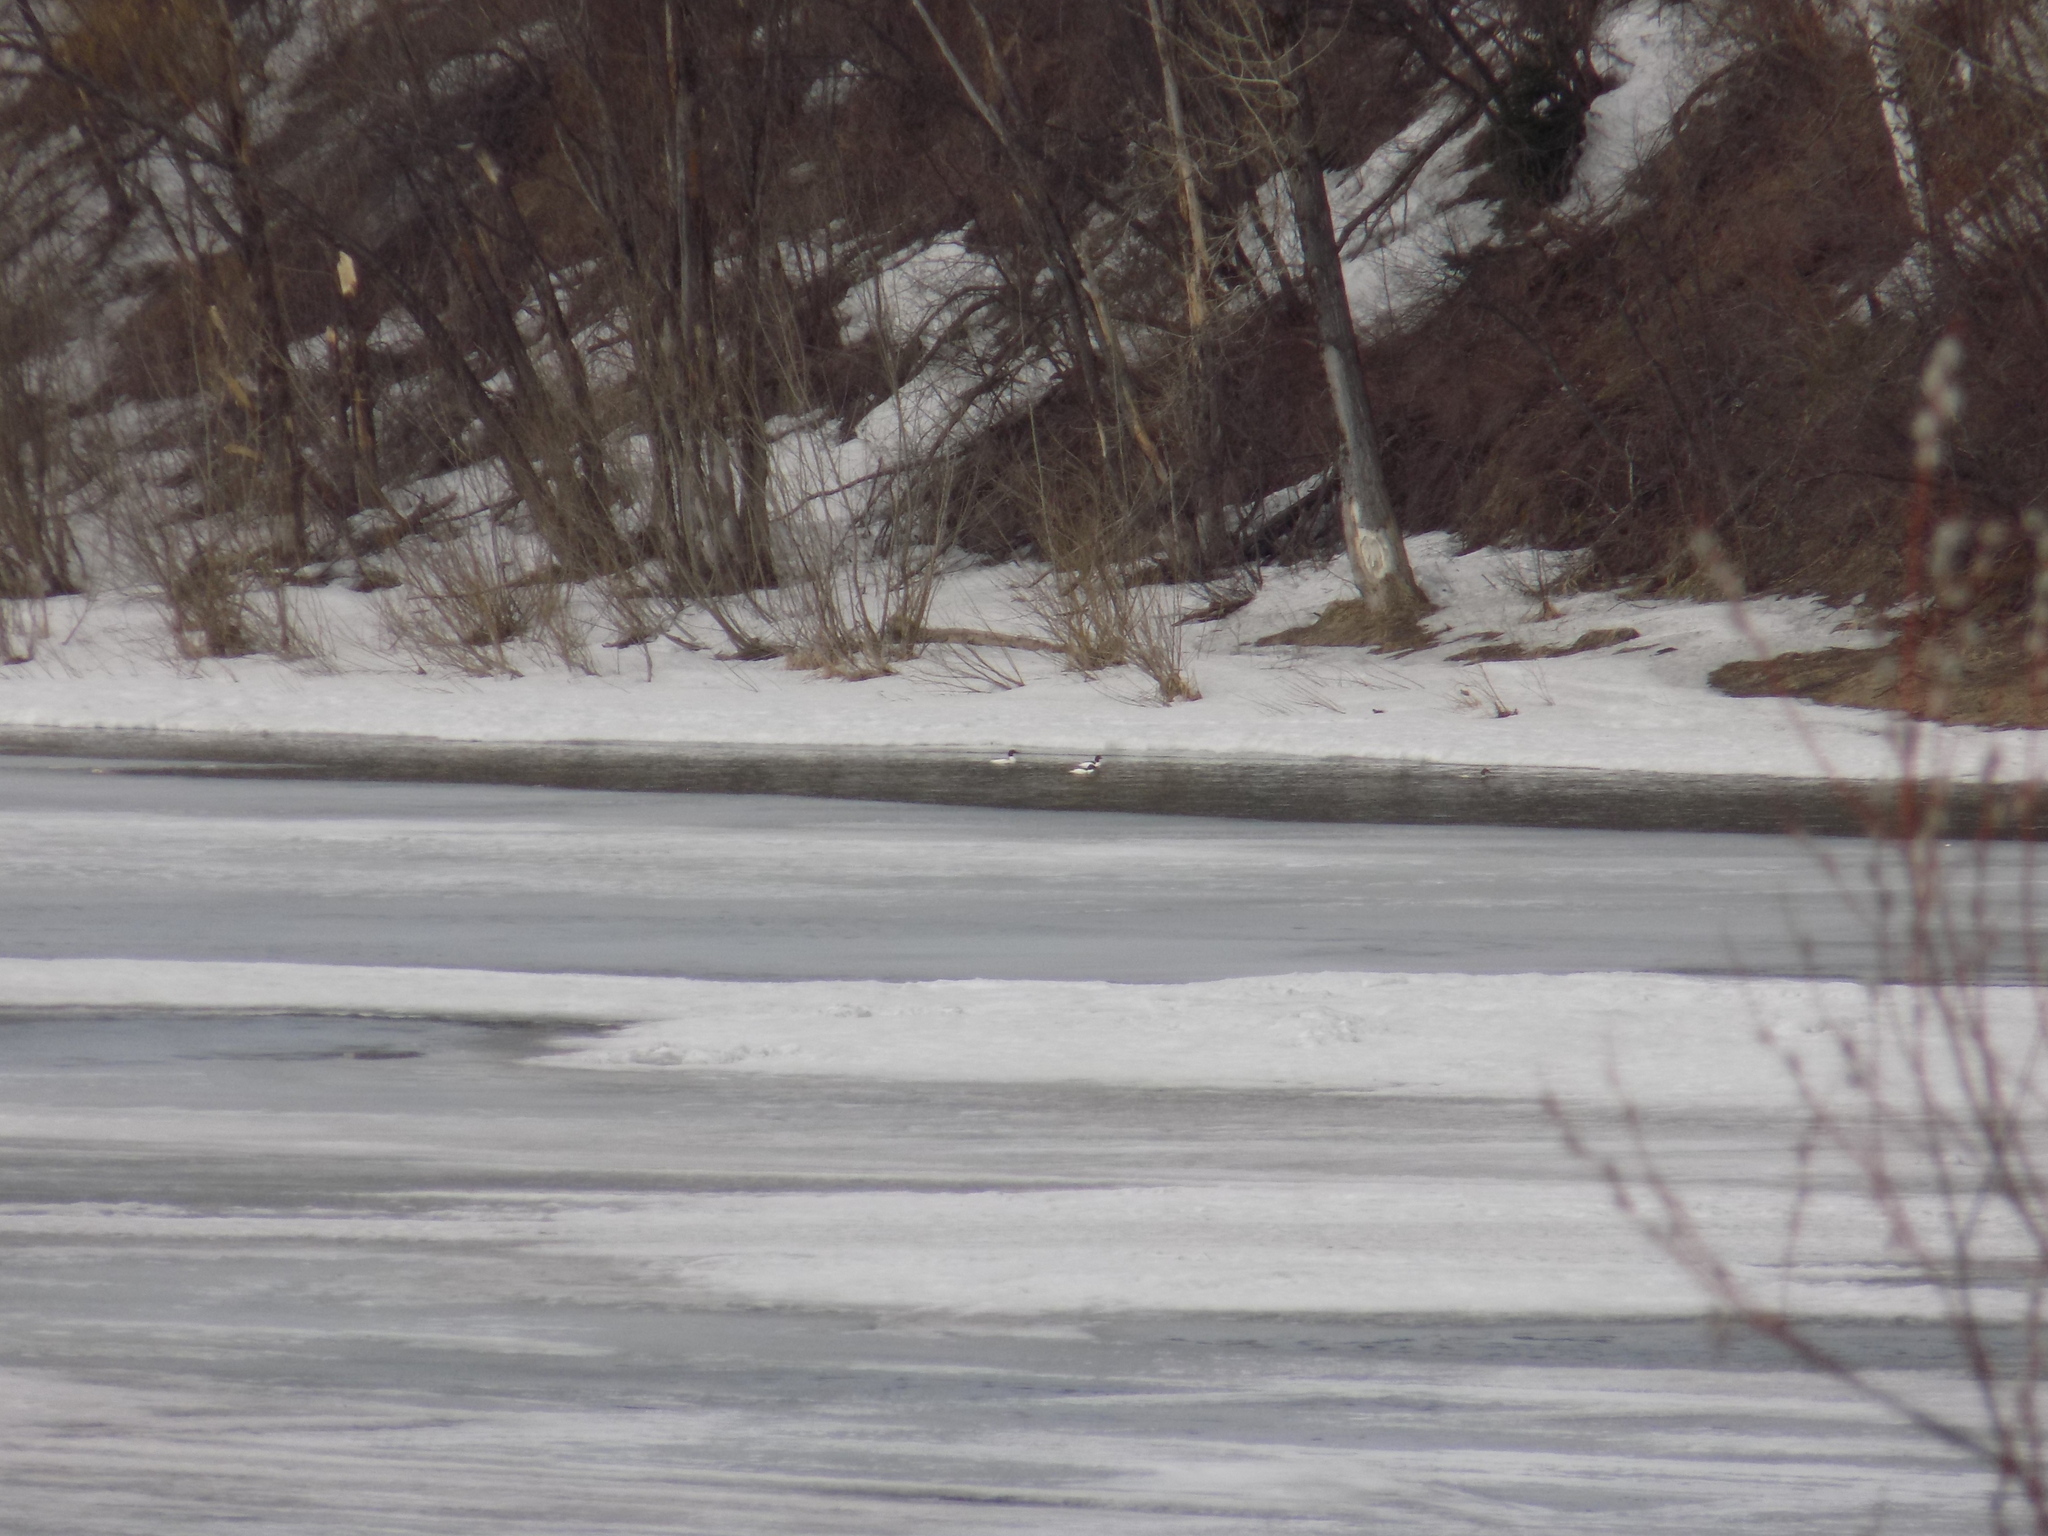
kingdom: Animalia
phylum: Chordata
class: Aves
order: Anseriformes
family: Anatidae
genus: Mergus
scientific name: Mergus merganser
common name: Common merganser
